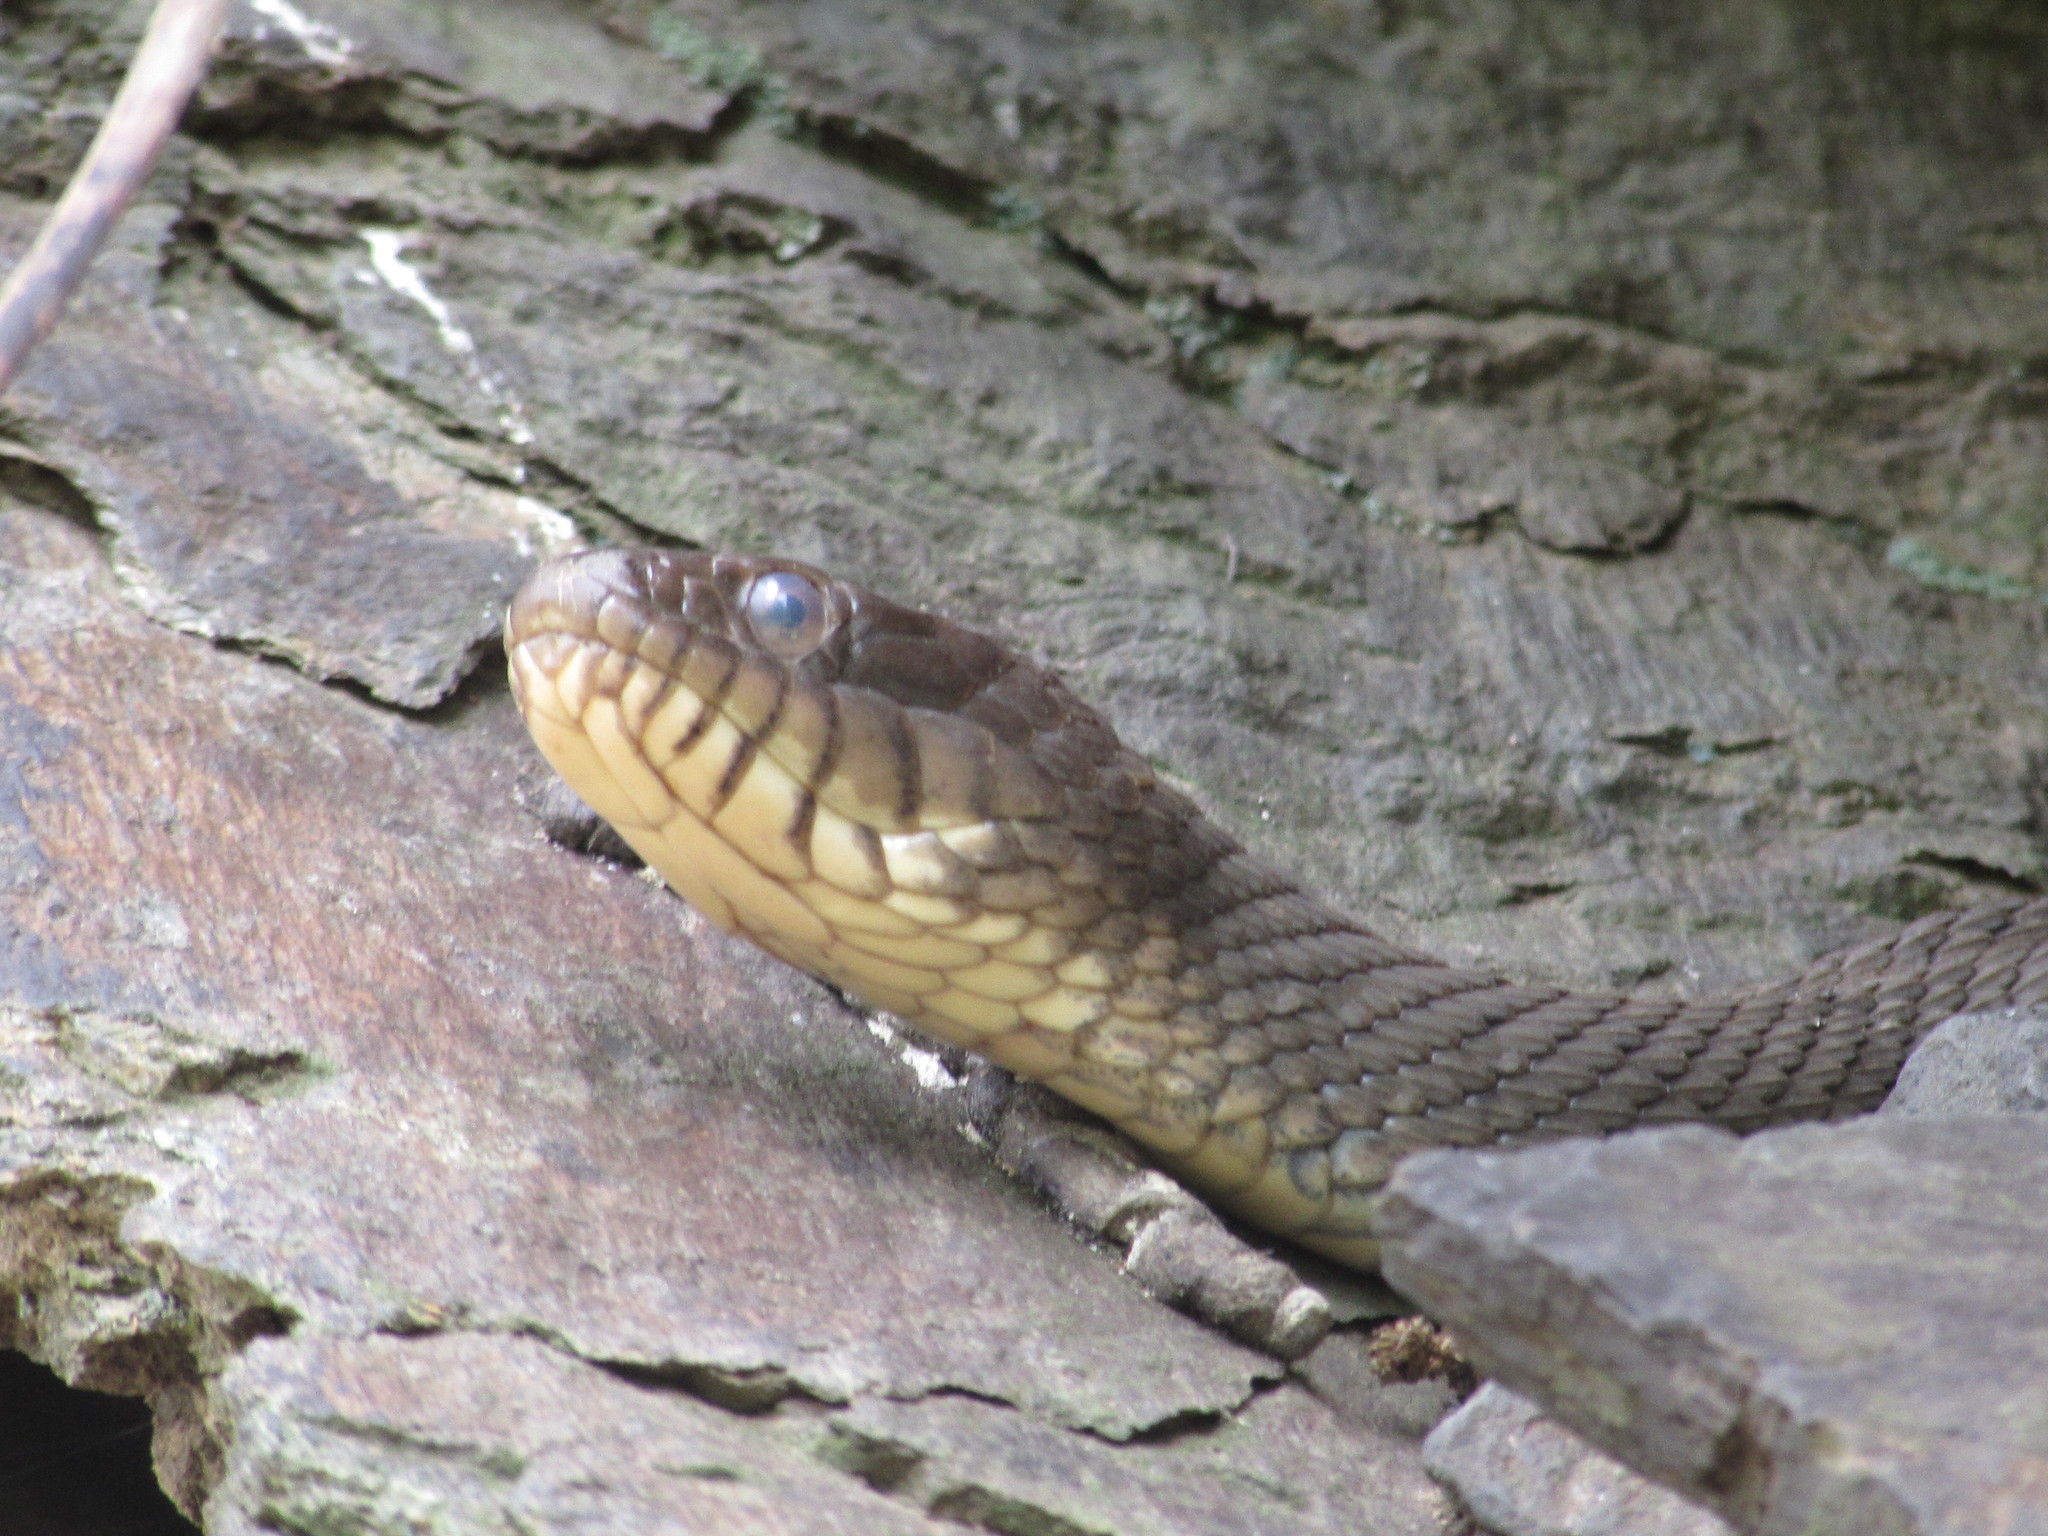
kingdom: Animalia
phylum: Chordata
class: Squamata
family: Colubridae
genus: Nerodia
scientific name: Nerodia sipedon
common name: Northern water snake
